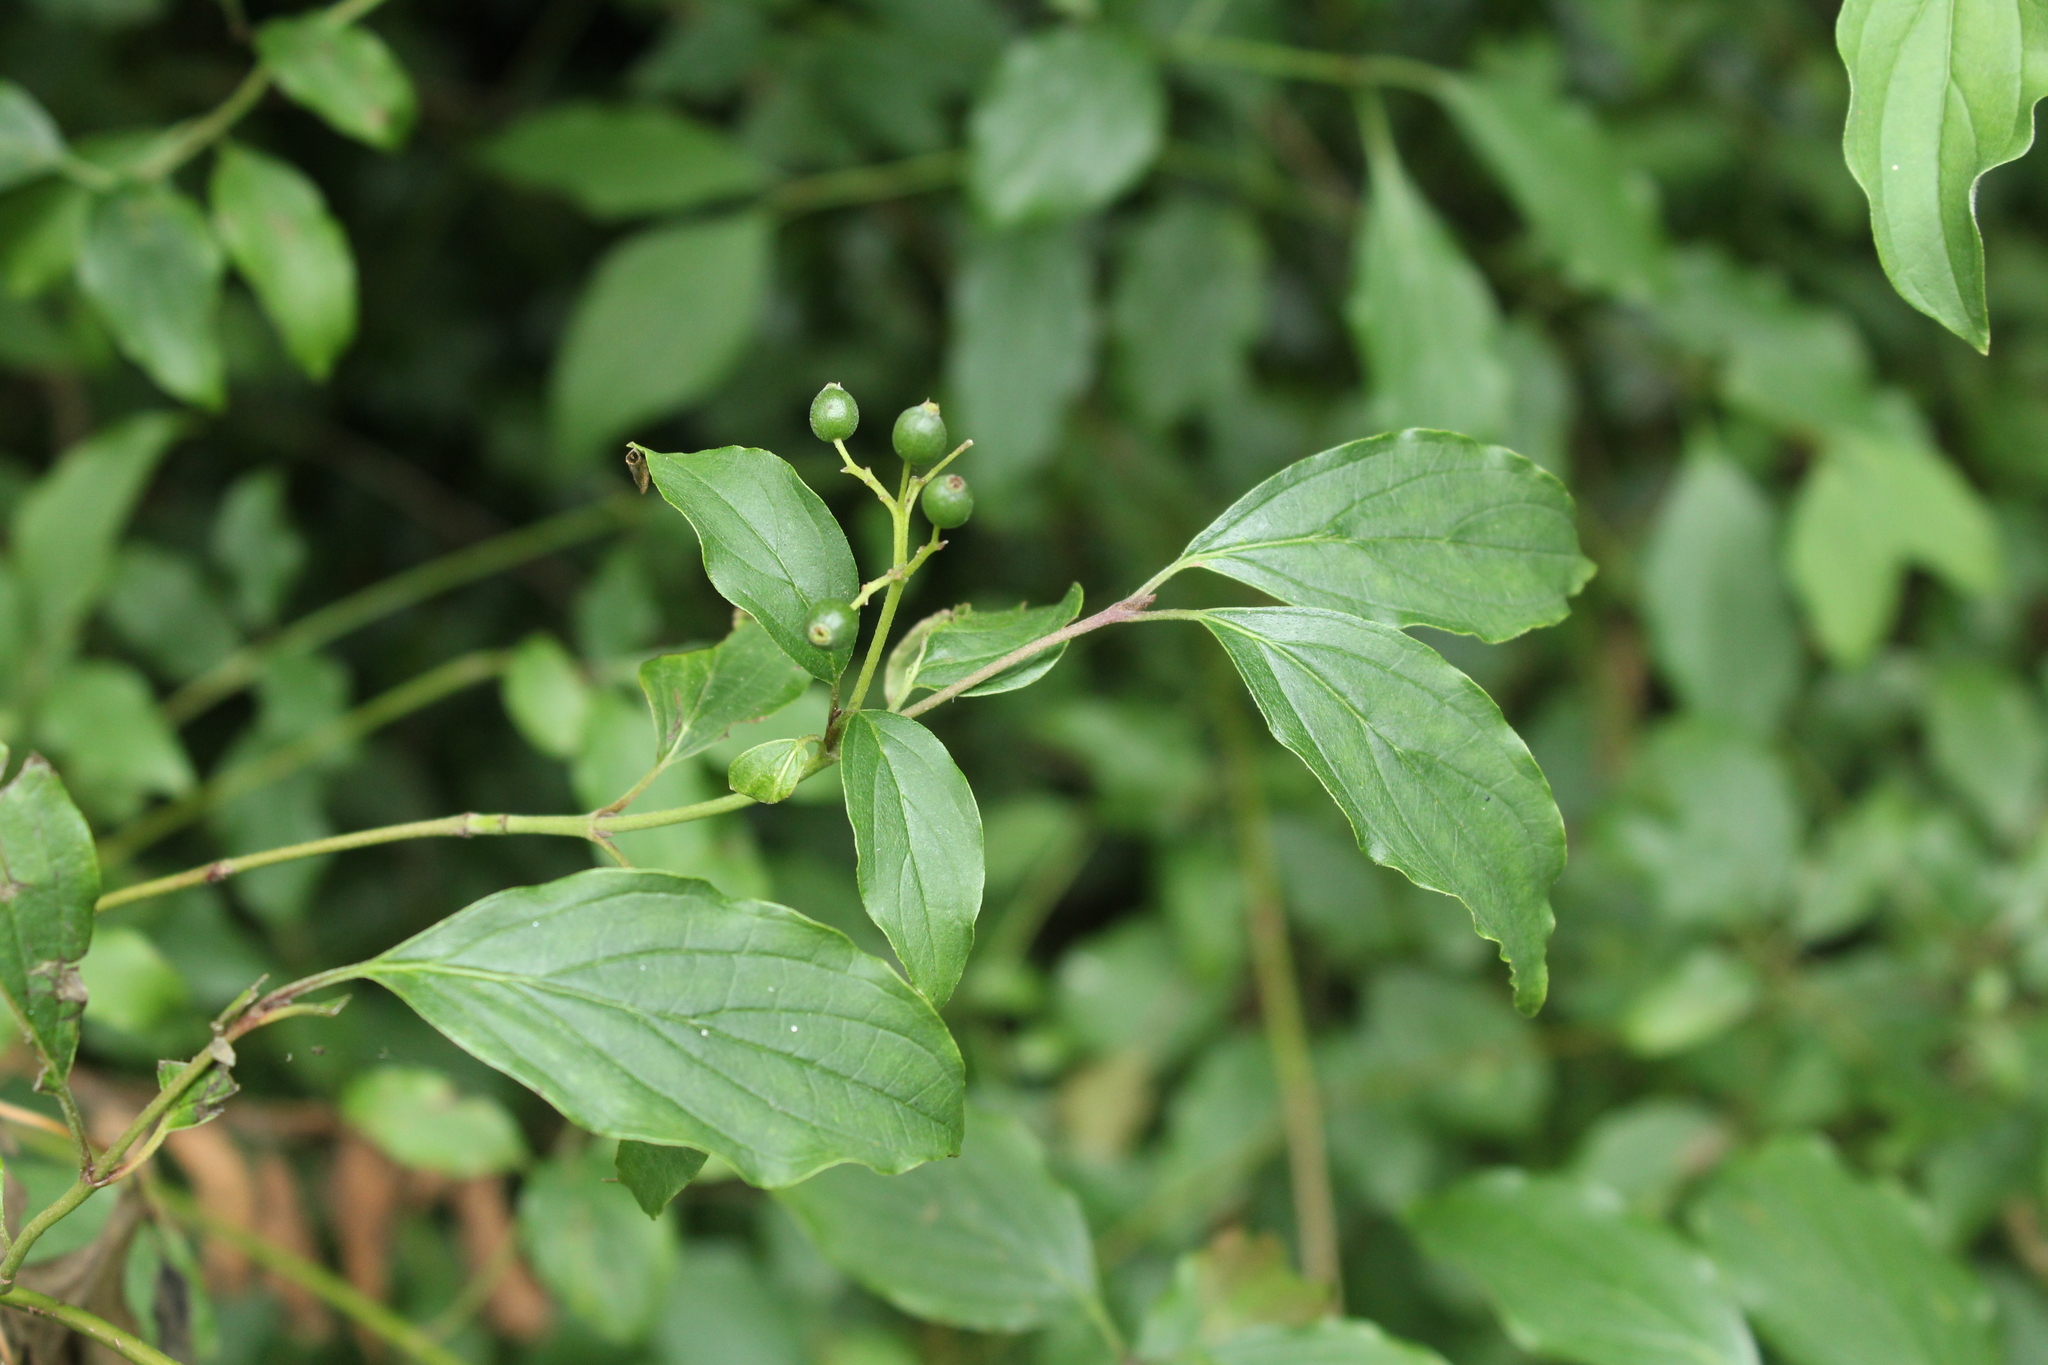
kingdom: Plantae
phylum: Tracheophyta
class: Magnoliopsida
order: Cornales
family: Cornaceae
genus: Cornus
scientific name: Cornus sanguinea
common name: Dogwood
